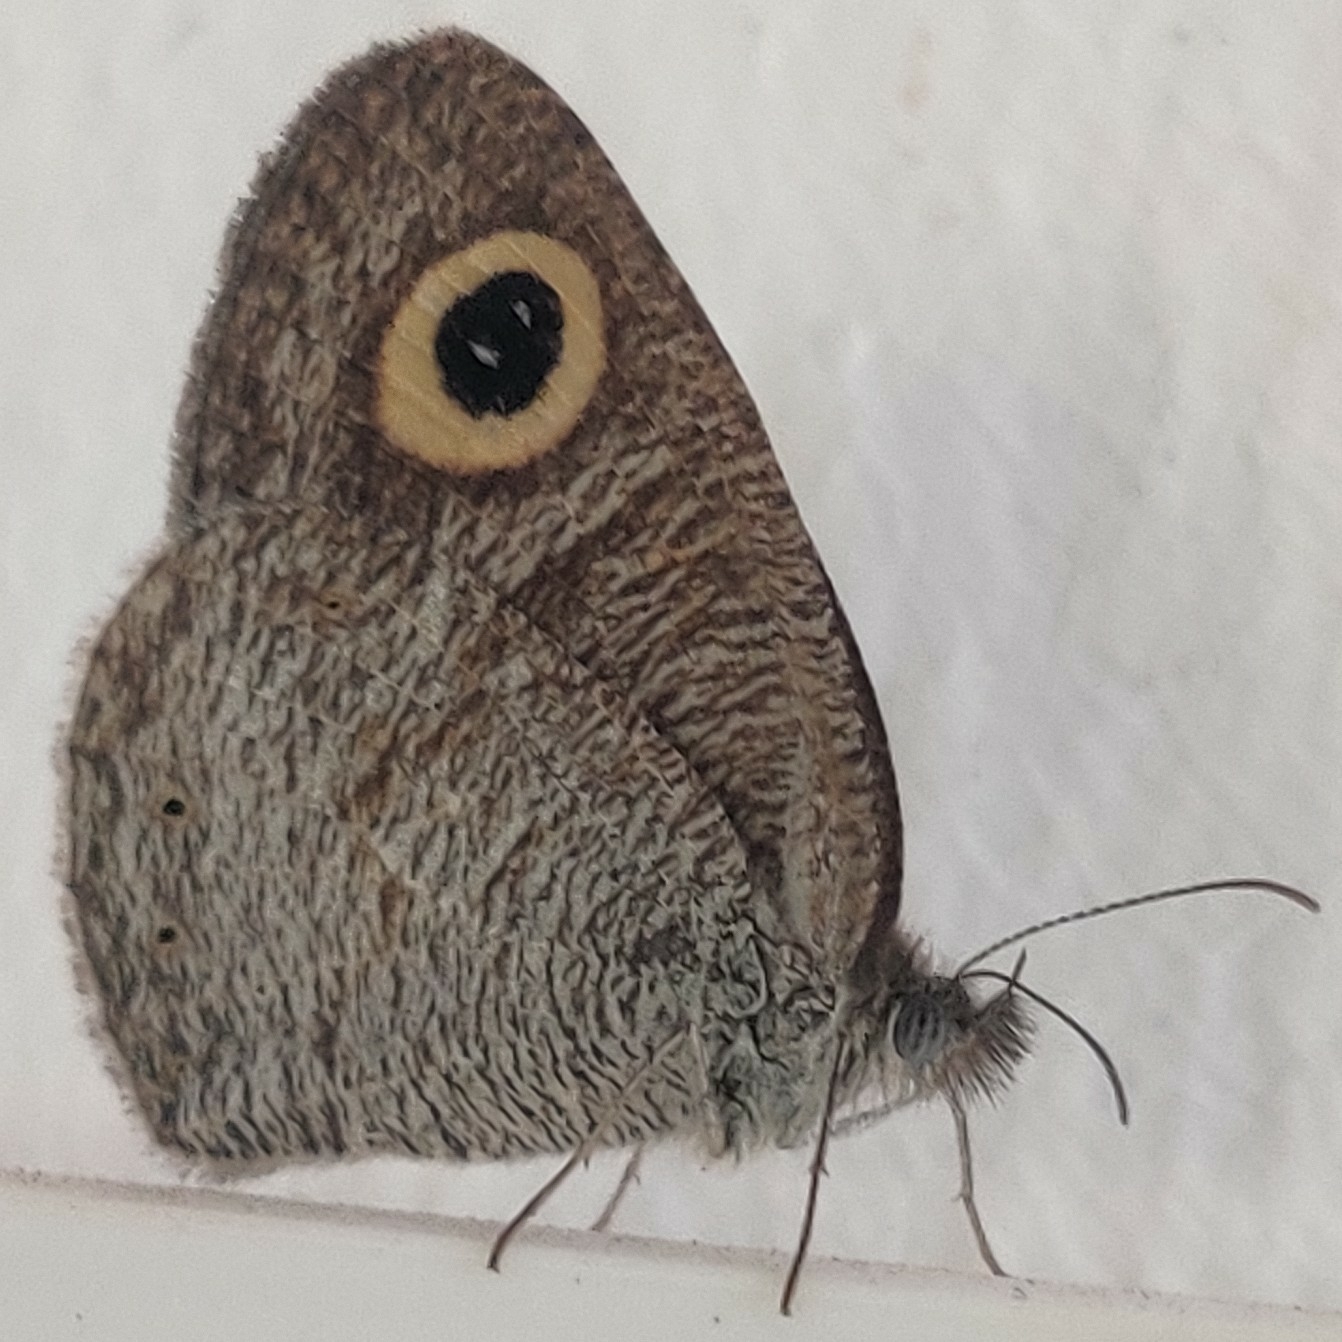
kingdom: Animalia
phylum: Arthropoda
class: Insecta
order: Lepidoptera
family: Nymphalidae
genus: Ypthima
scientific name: Ypthima huebneri
